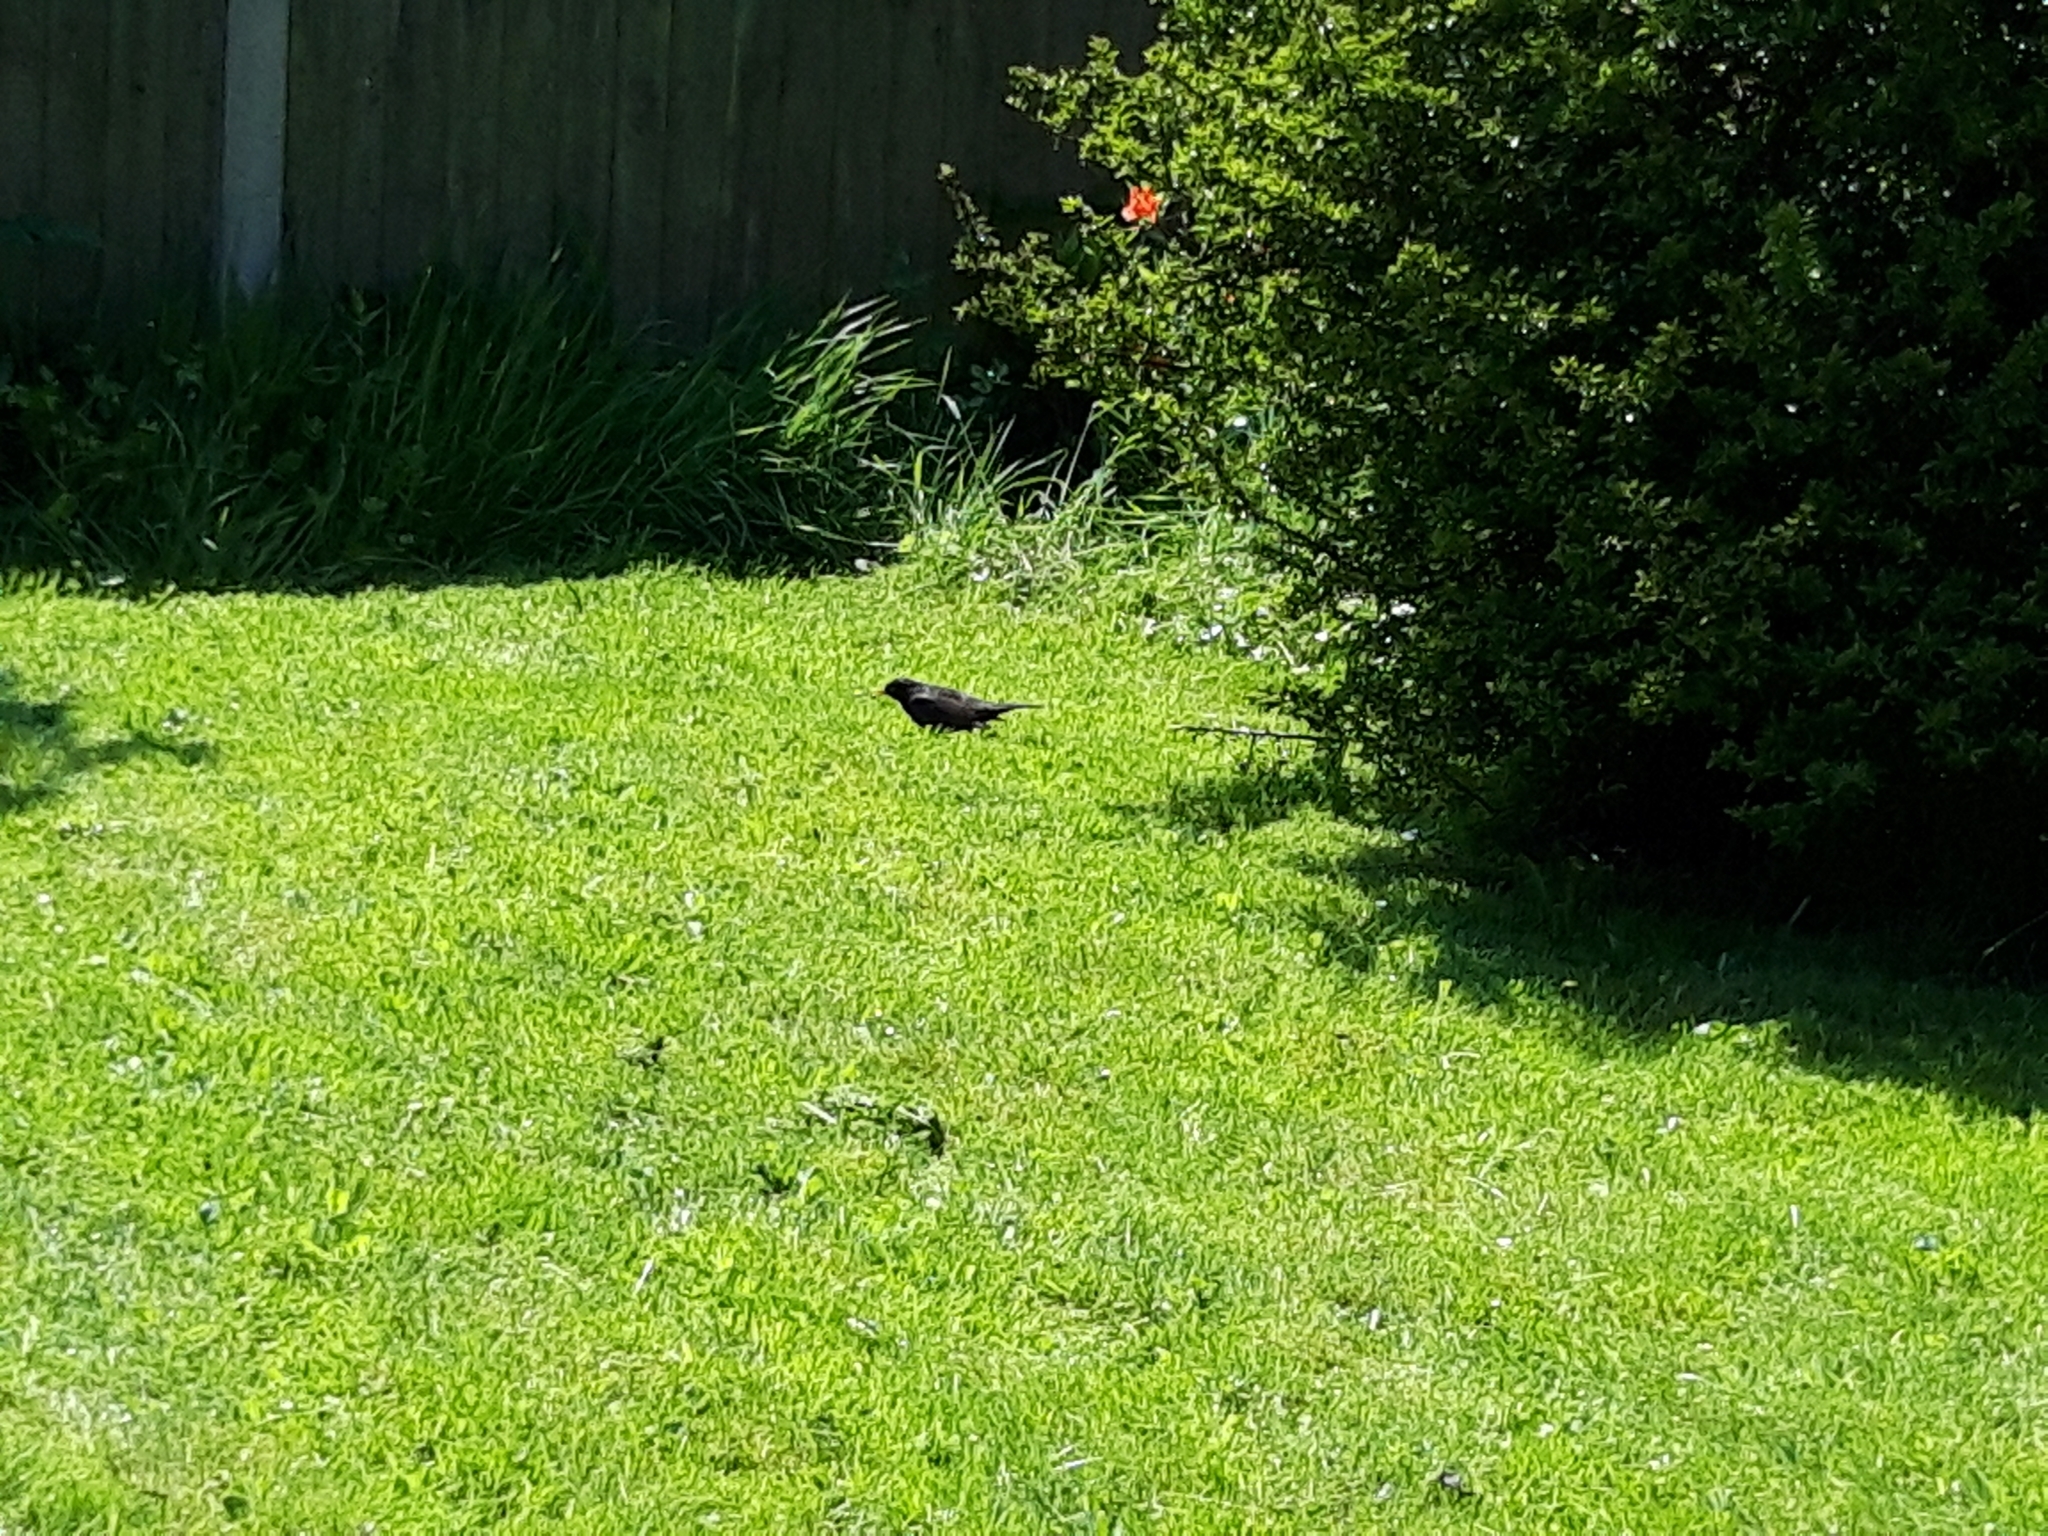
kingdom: Animalia
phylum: Chordata
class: Aves
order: Passeriformes
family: Turdidae
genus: Turdus
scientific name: Turdus merula
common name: Common blackbird
